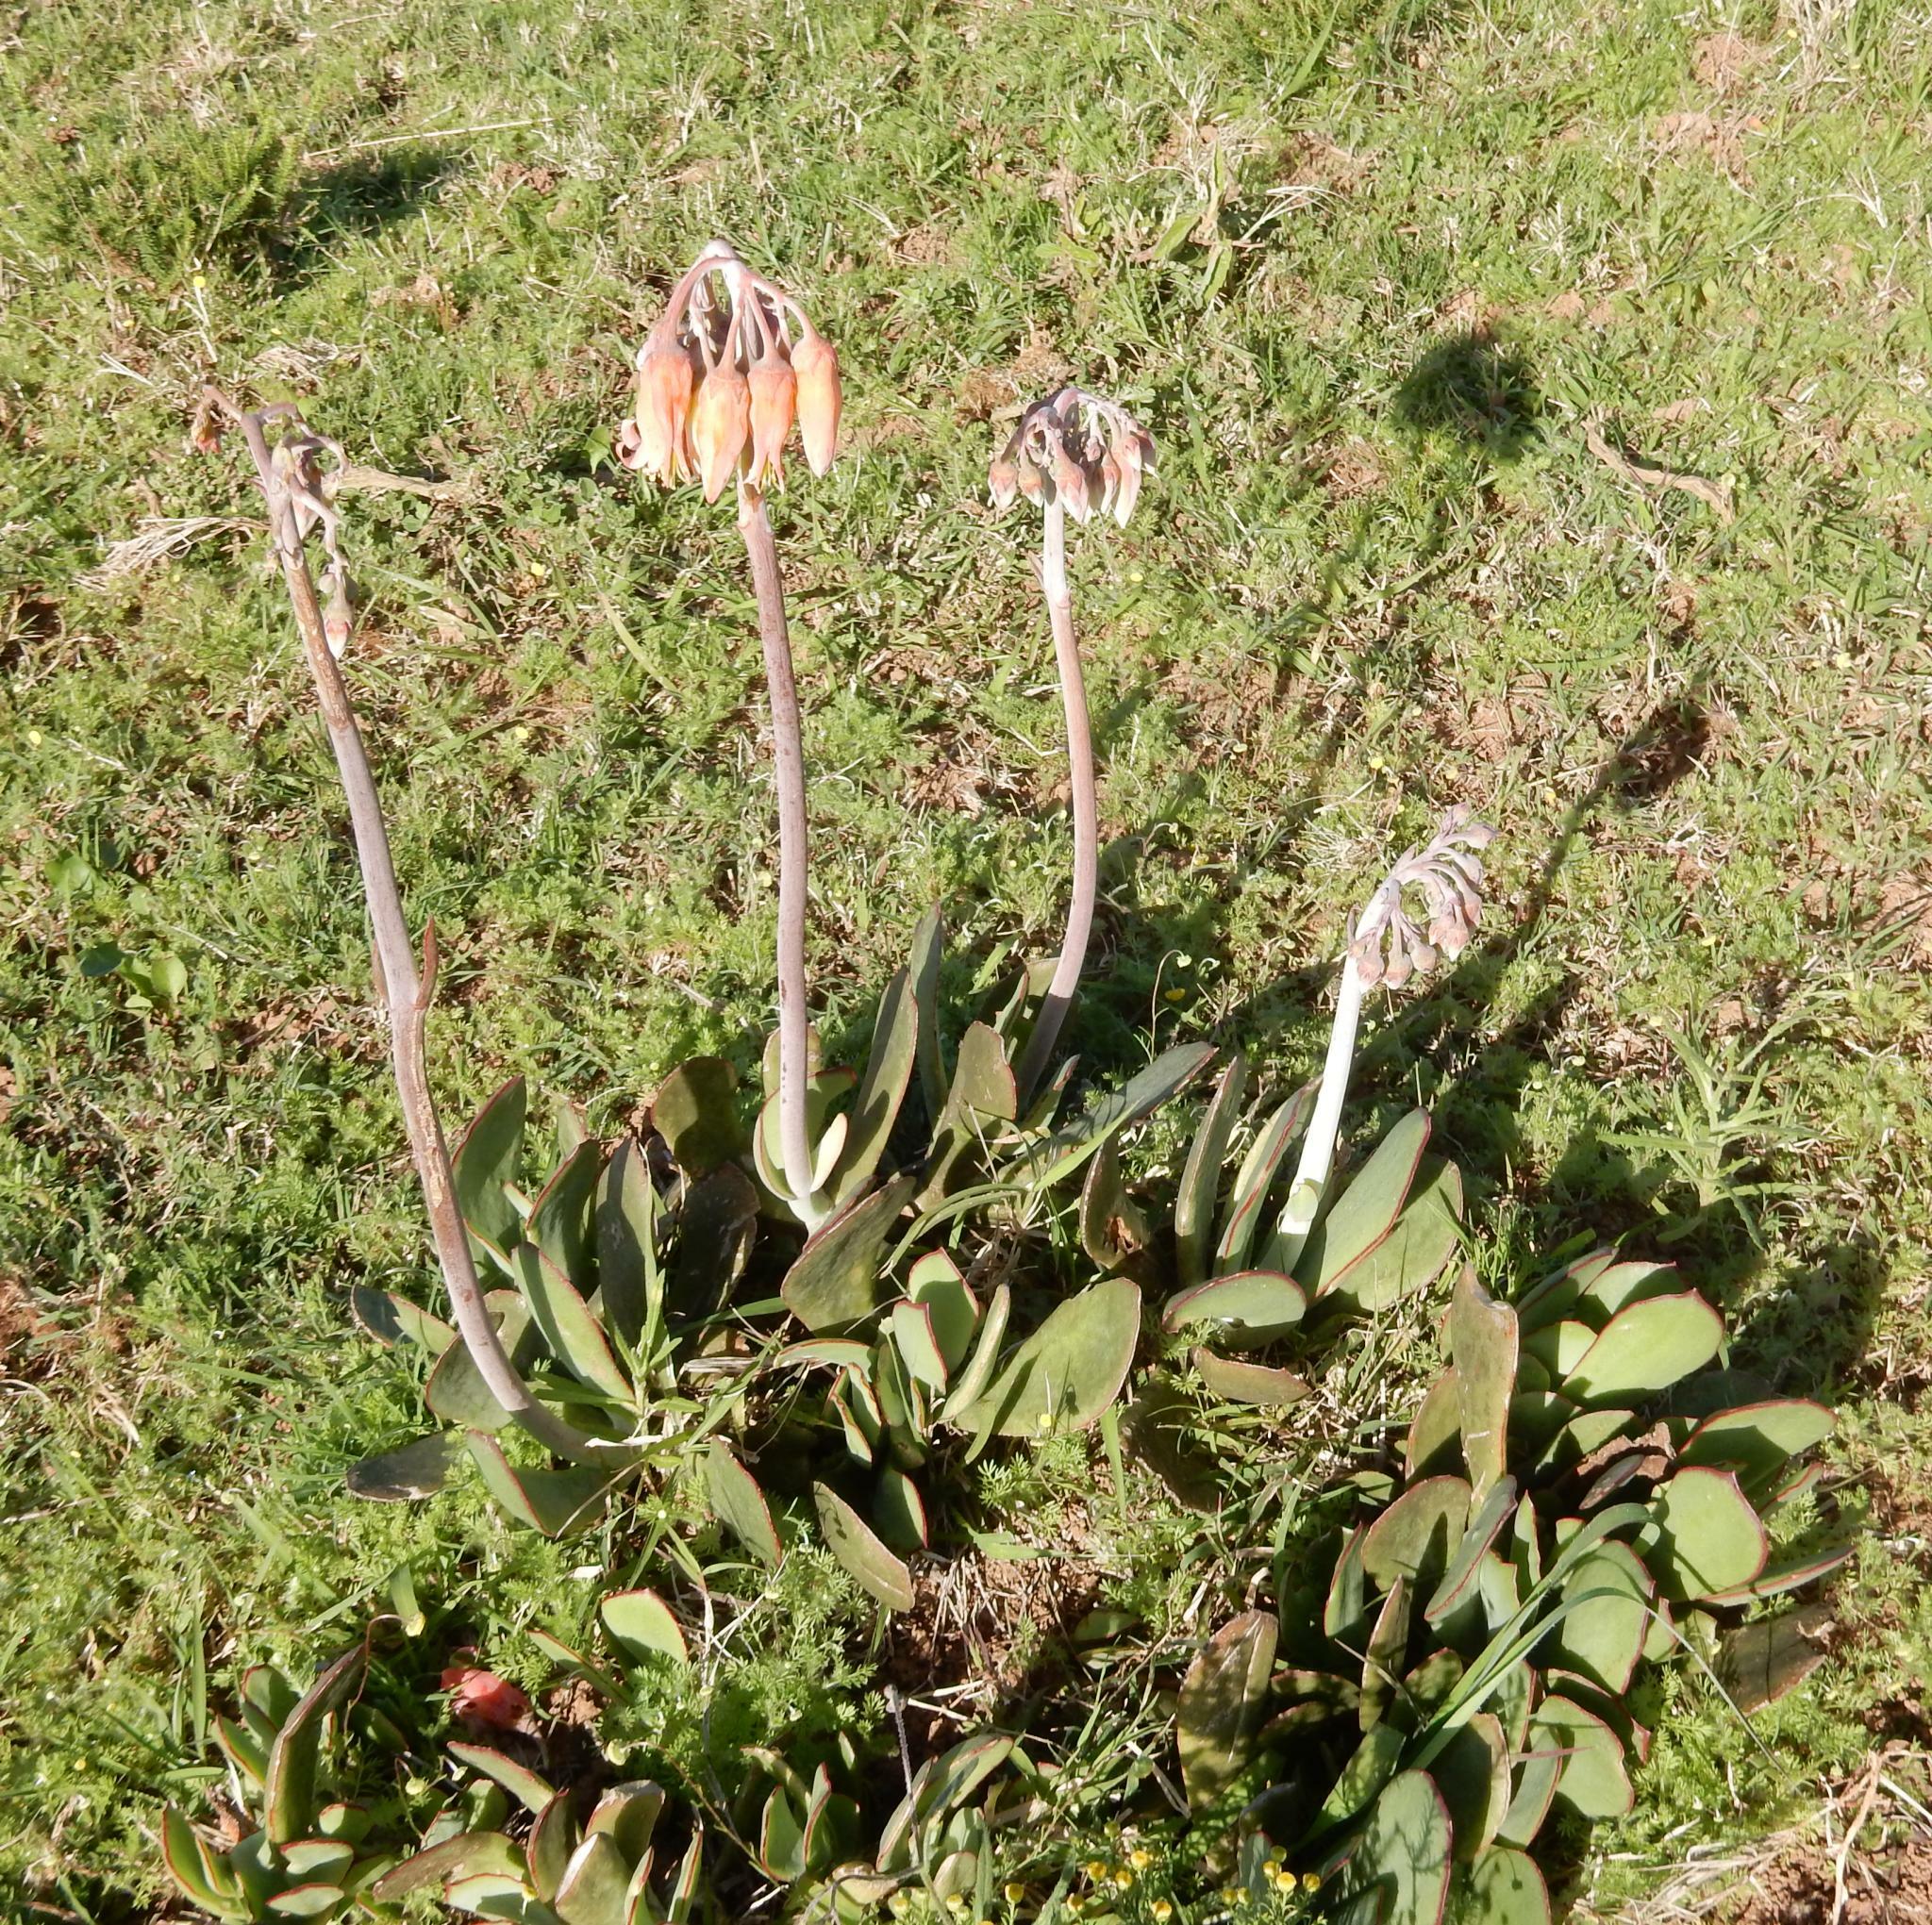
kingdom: Plantae
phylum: Tracheophyta
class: Magnoliopsida
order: Saxifragales
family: Crassulaceae
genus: Cotyledon
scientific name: Cotyledon orbiculata
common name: Pig's ear
